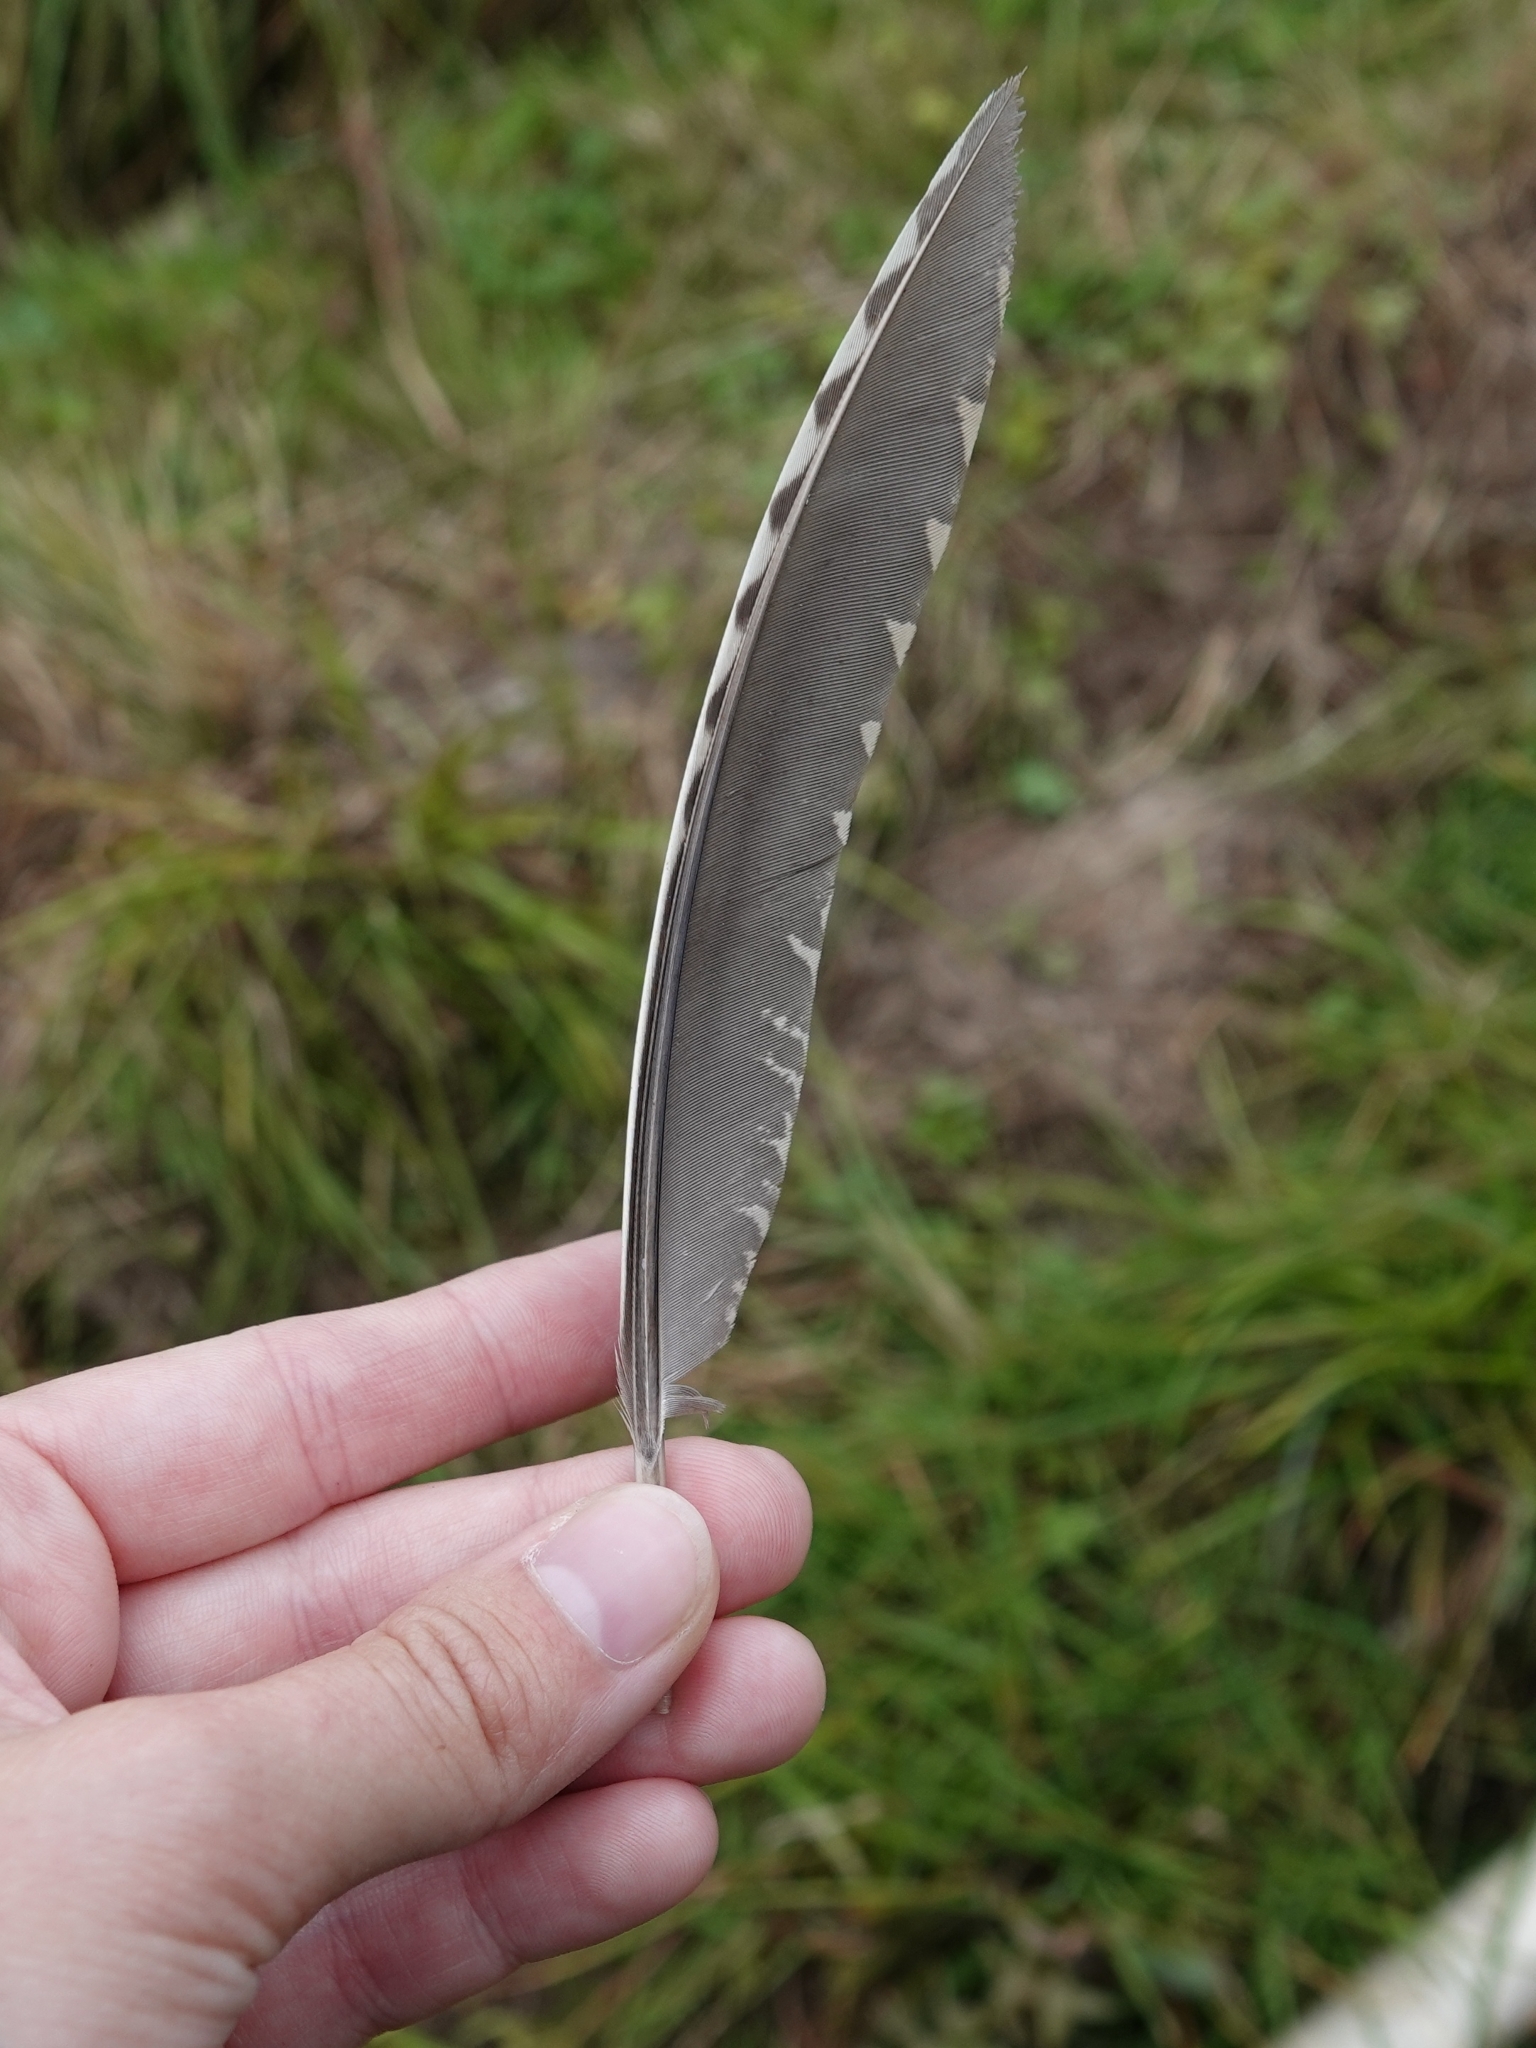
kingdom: Animalia
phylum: Chordata
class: Aves
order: Charadriiformes
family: Scolopacidae
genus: Scolopax
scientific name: Scolopax rusticola
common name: Eurasian woodcock
